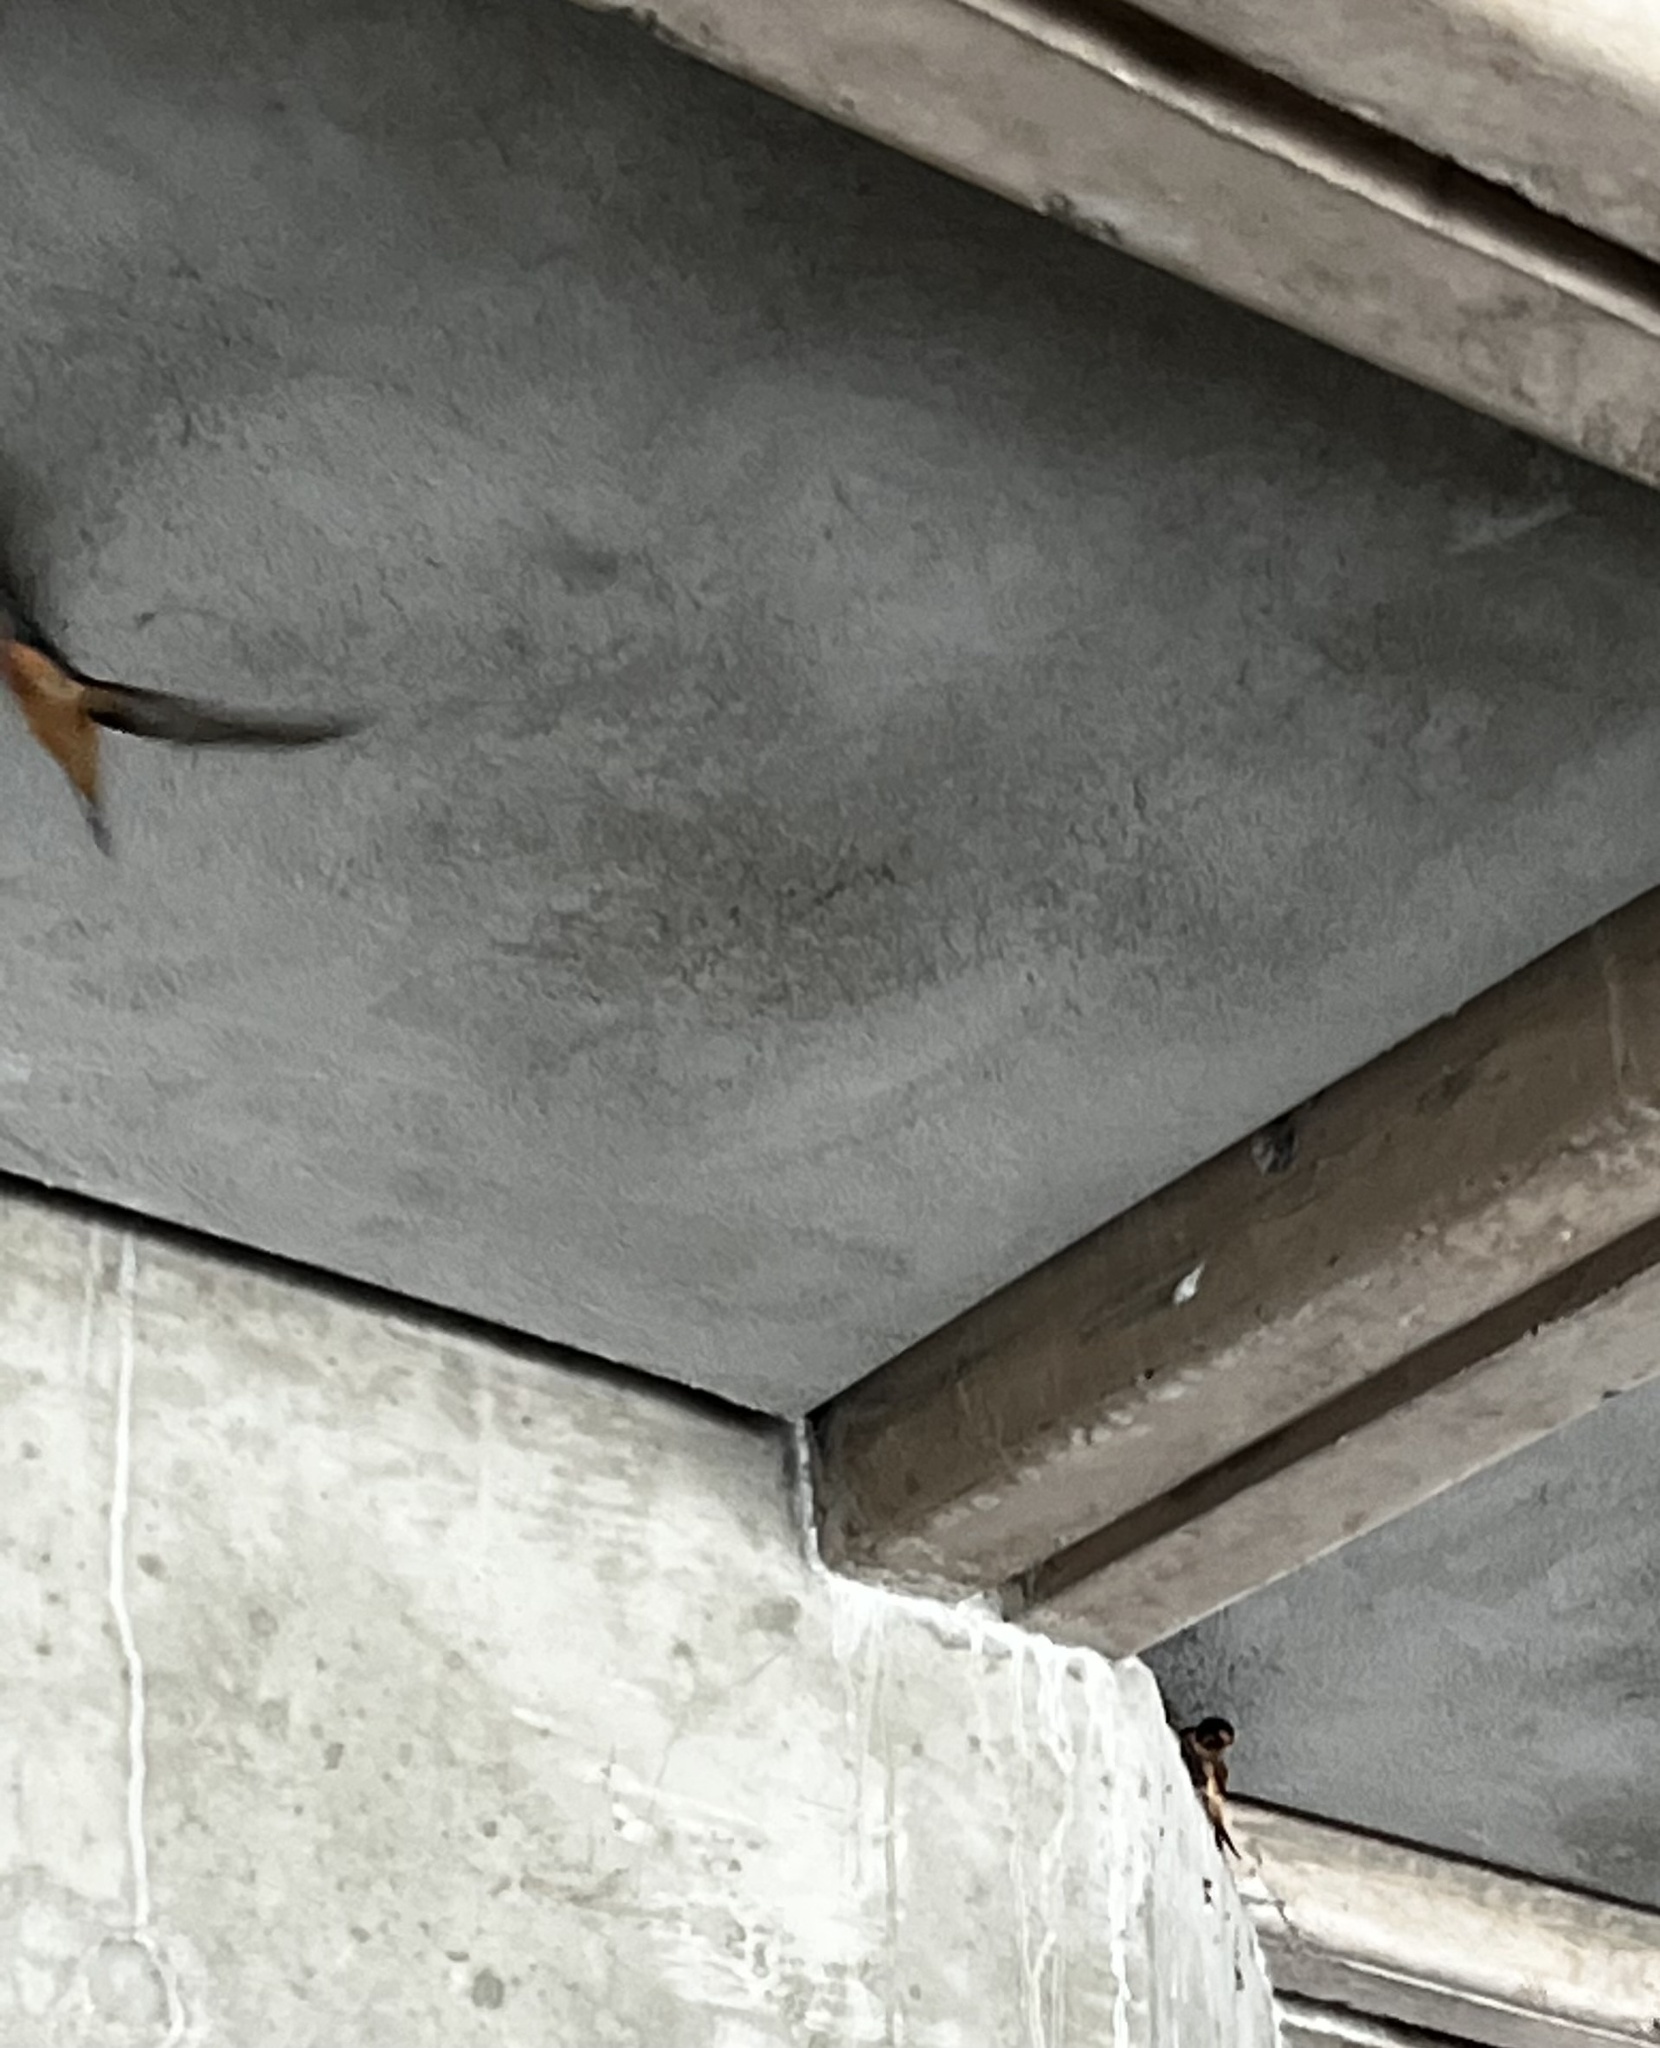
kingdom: Animalia
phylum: Chordata
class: Aves
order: Passeriformes
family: Hirundinidae
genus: Hirundo
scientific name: Hirundo rustica
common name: Barn swallow
